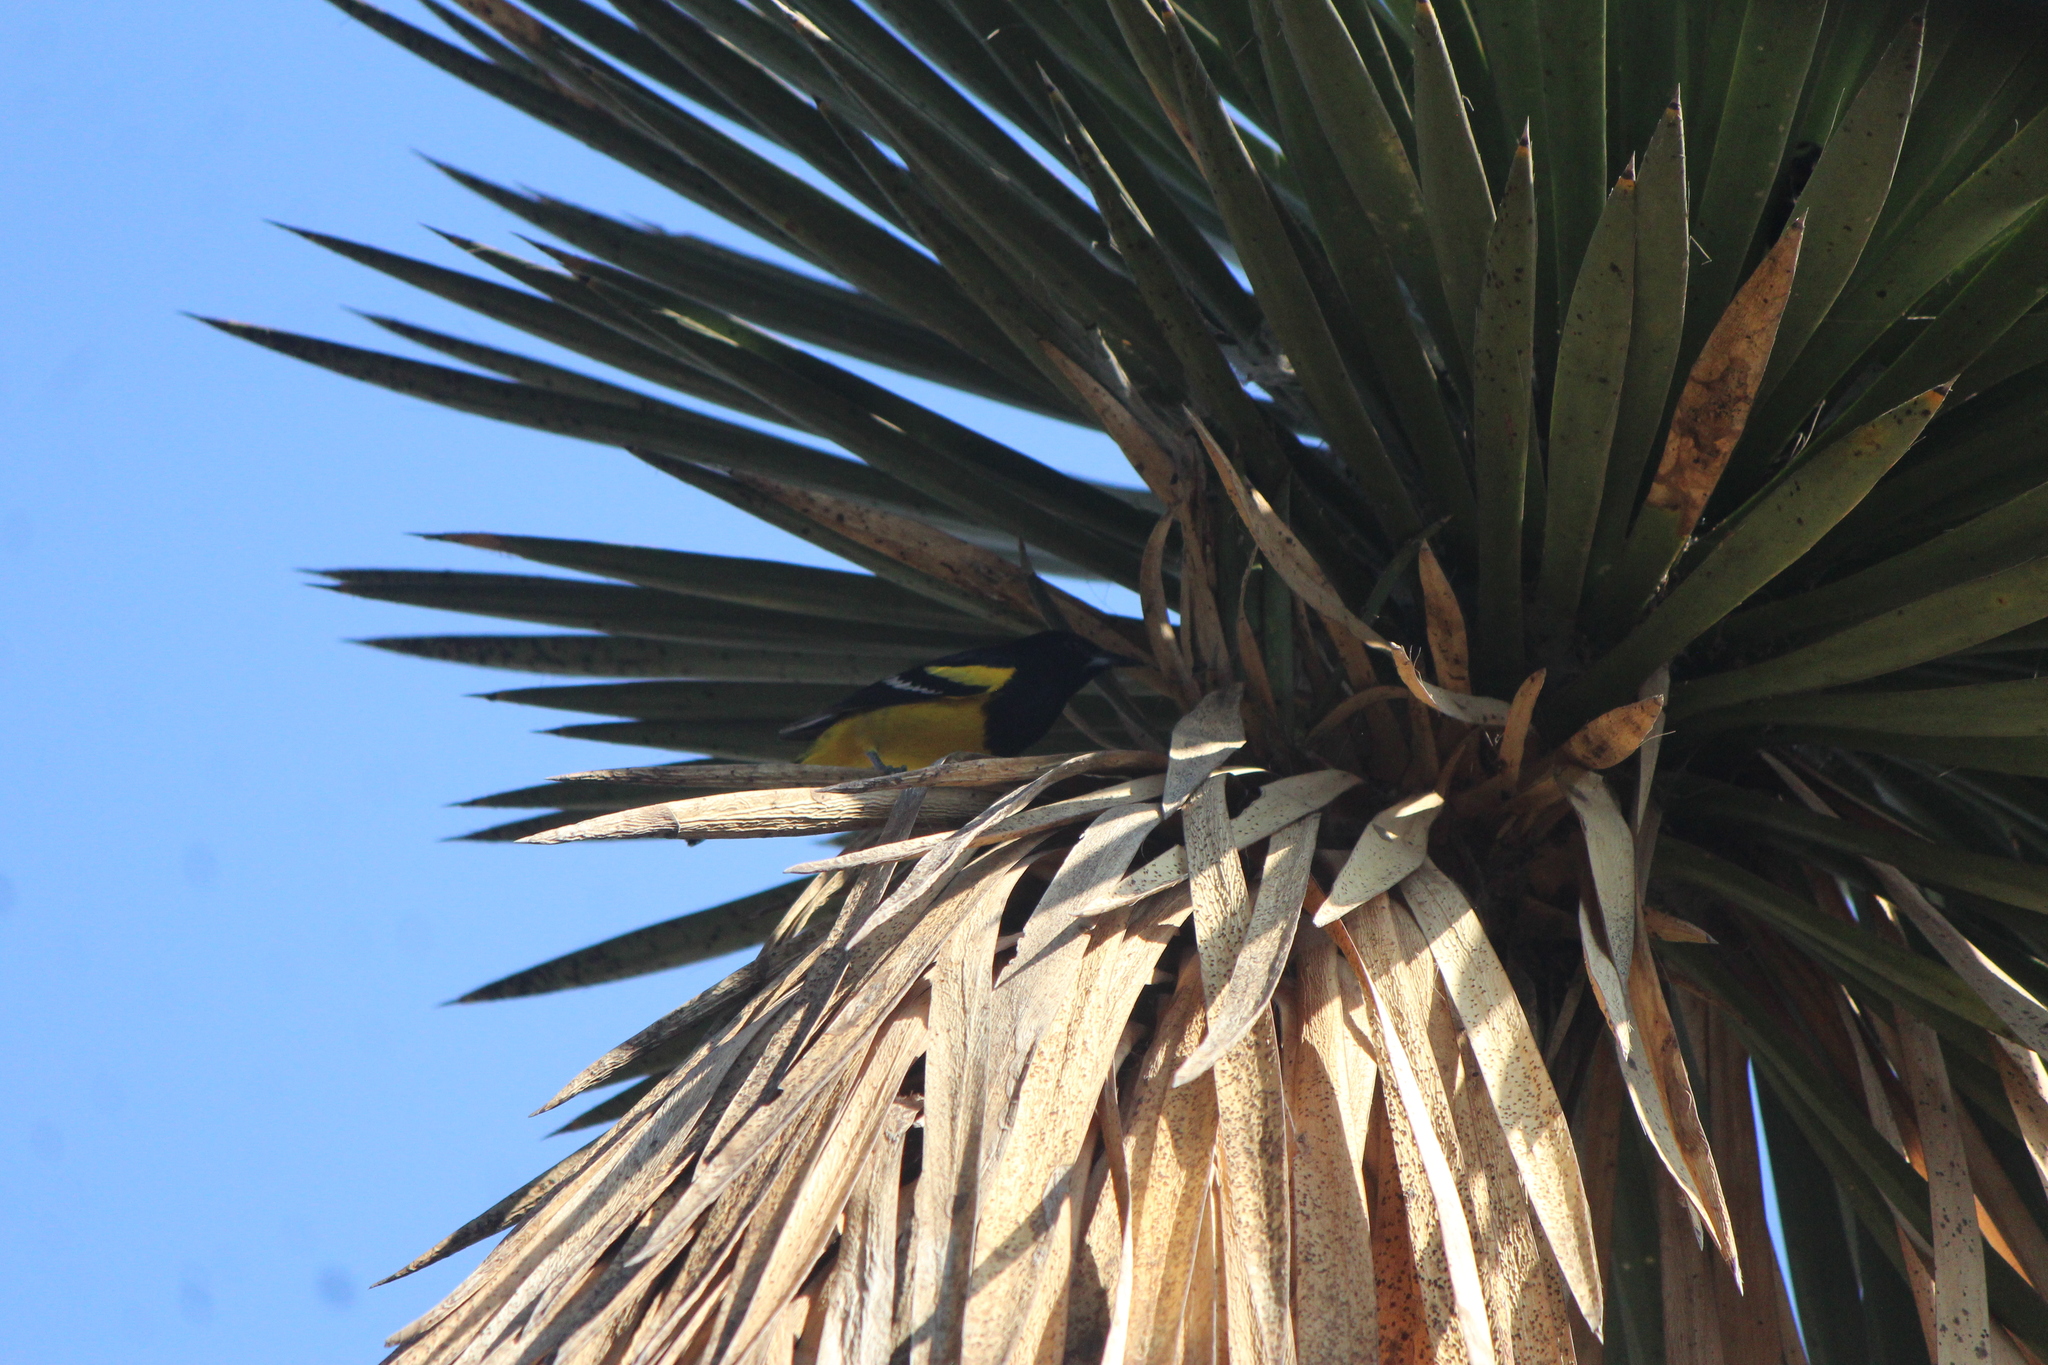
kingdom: Animalia
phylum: Chordata
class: Aves
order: Passeriformes
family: Icteridae
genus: Icterus
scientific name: Icterus parisorum
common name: Scott's oriole
